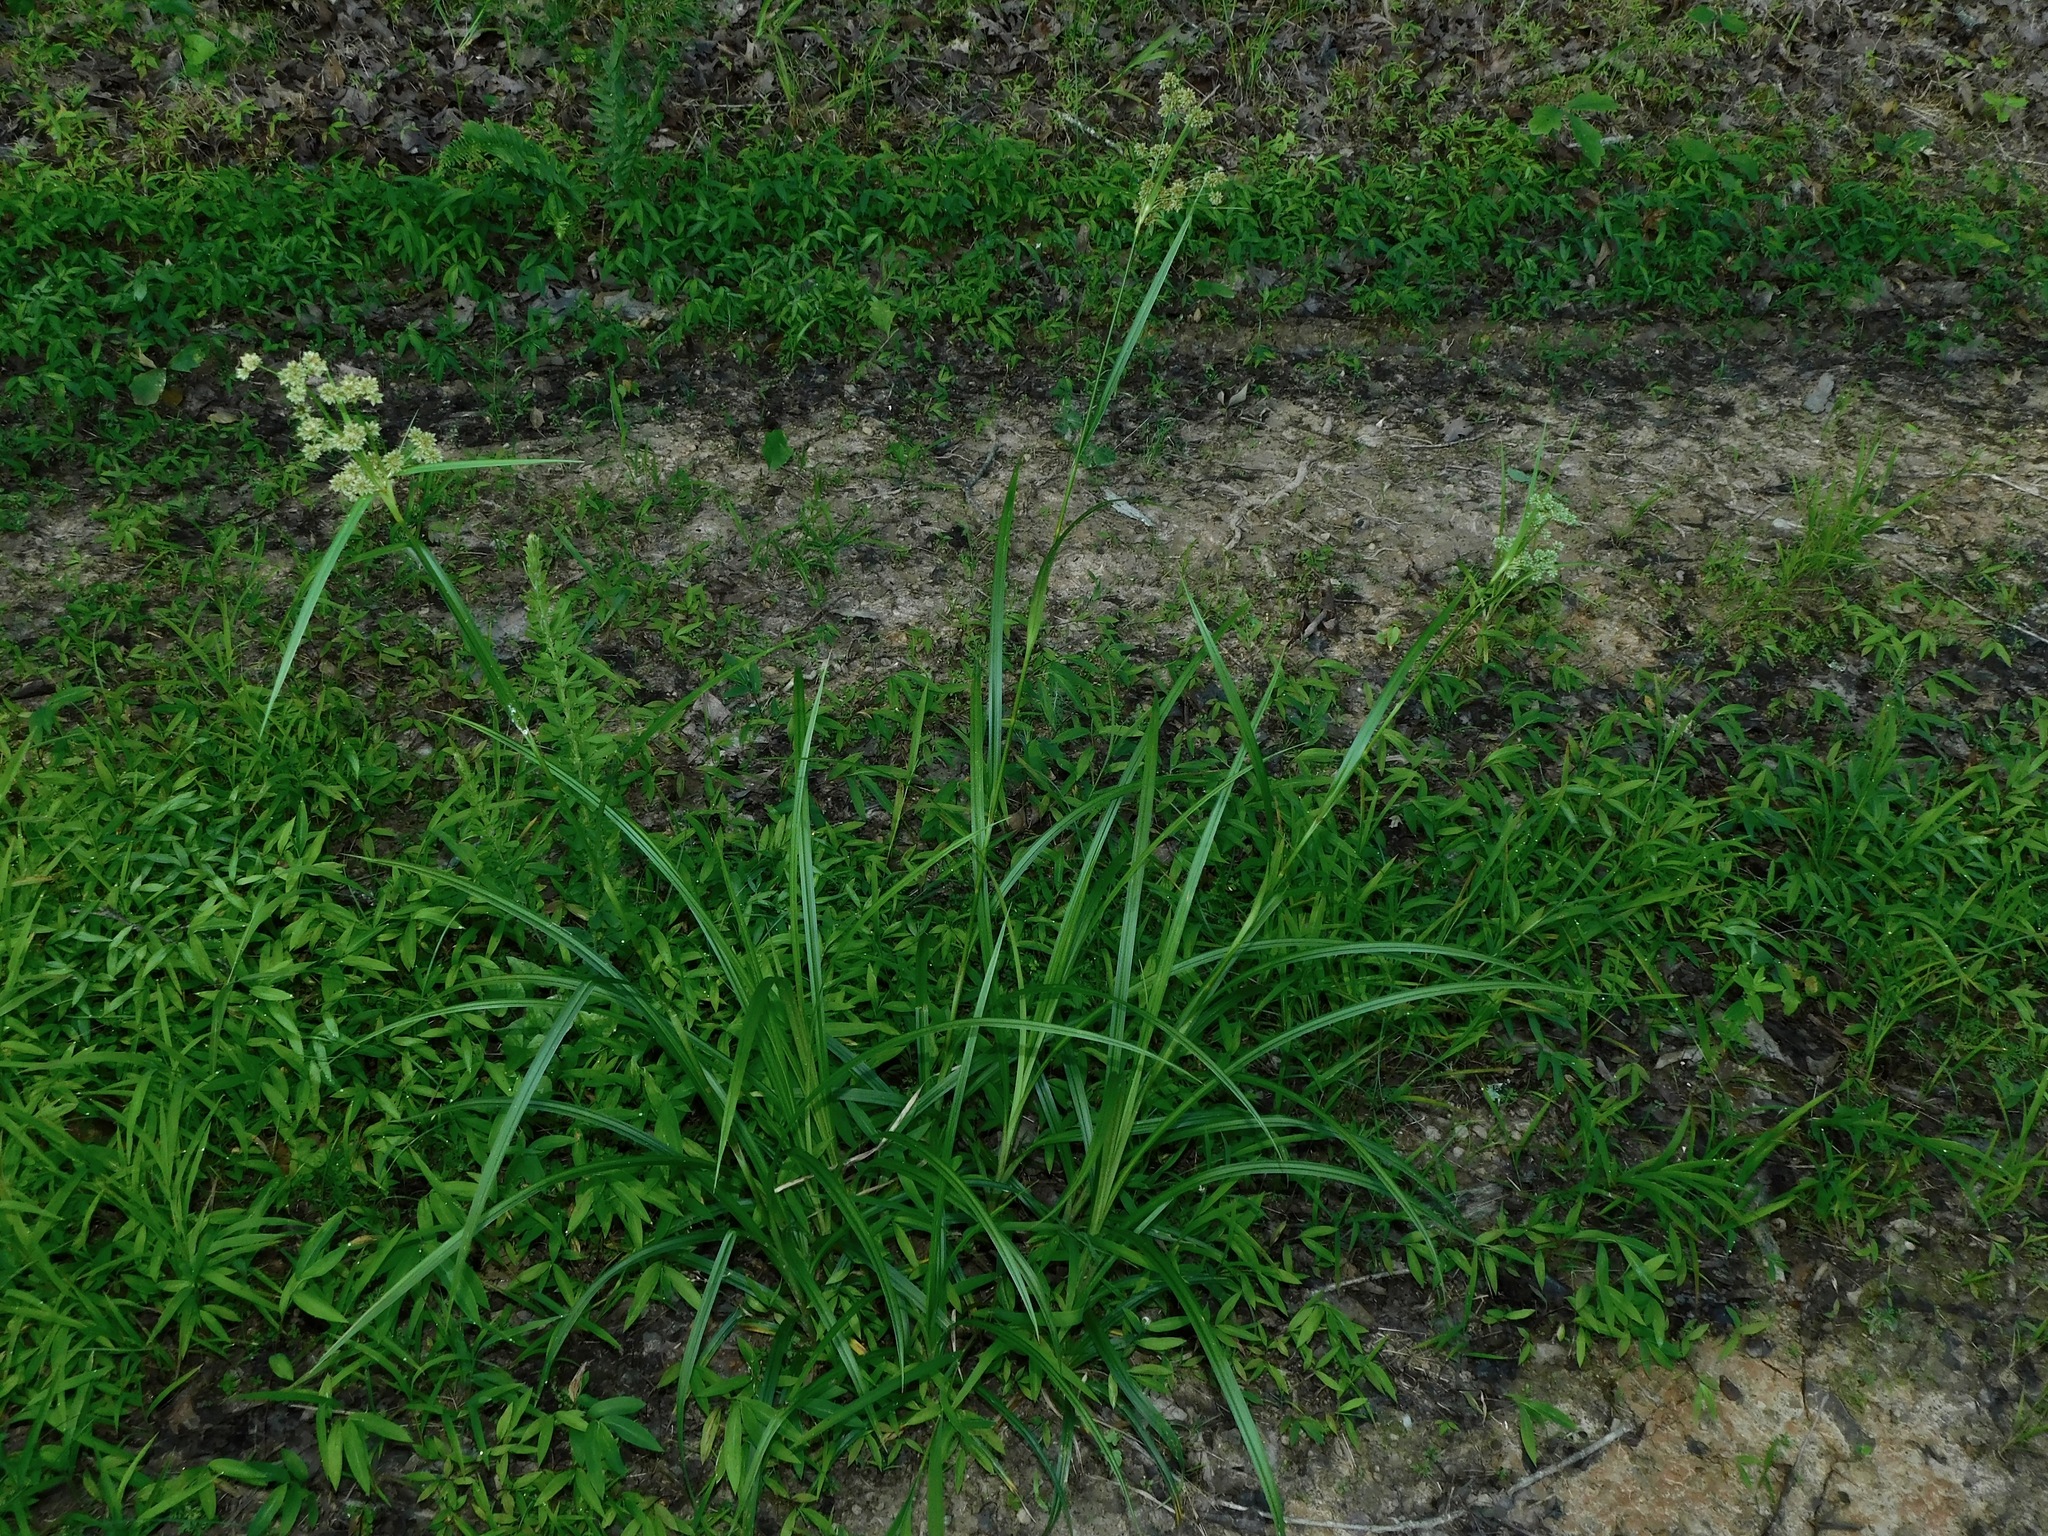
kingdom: Plantae
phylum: Tracheophyta
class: Liliopsida
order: Poales
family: Cyperaceae
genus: Scirpus
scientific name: Scirpus atrovirens
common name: Black bulrush
